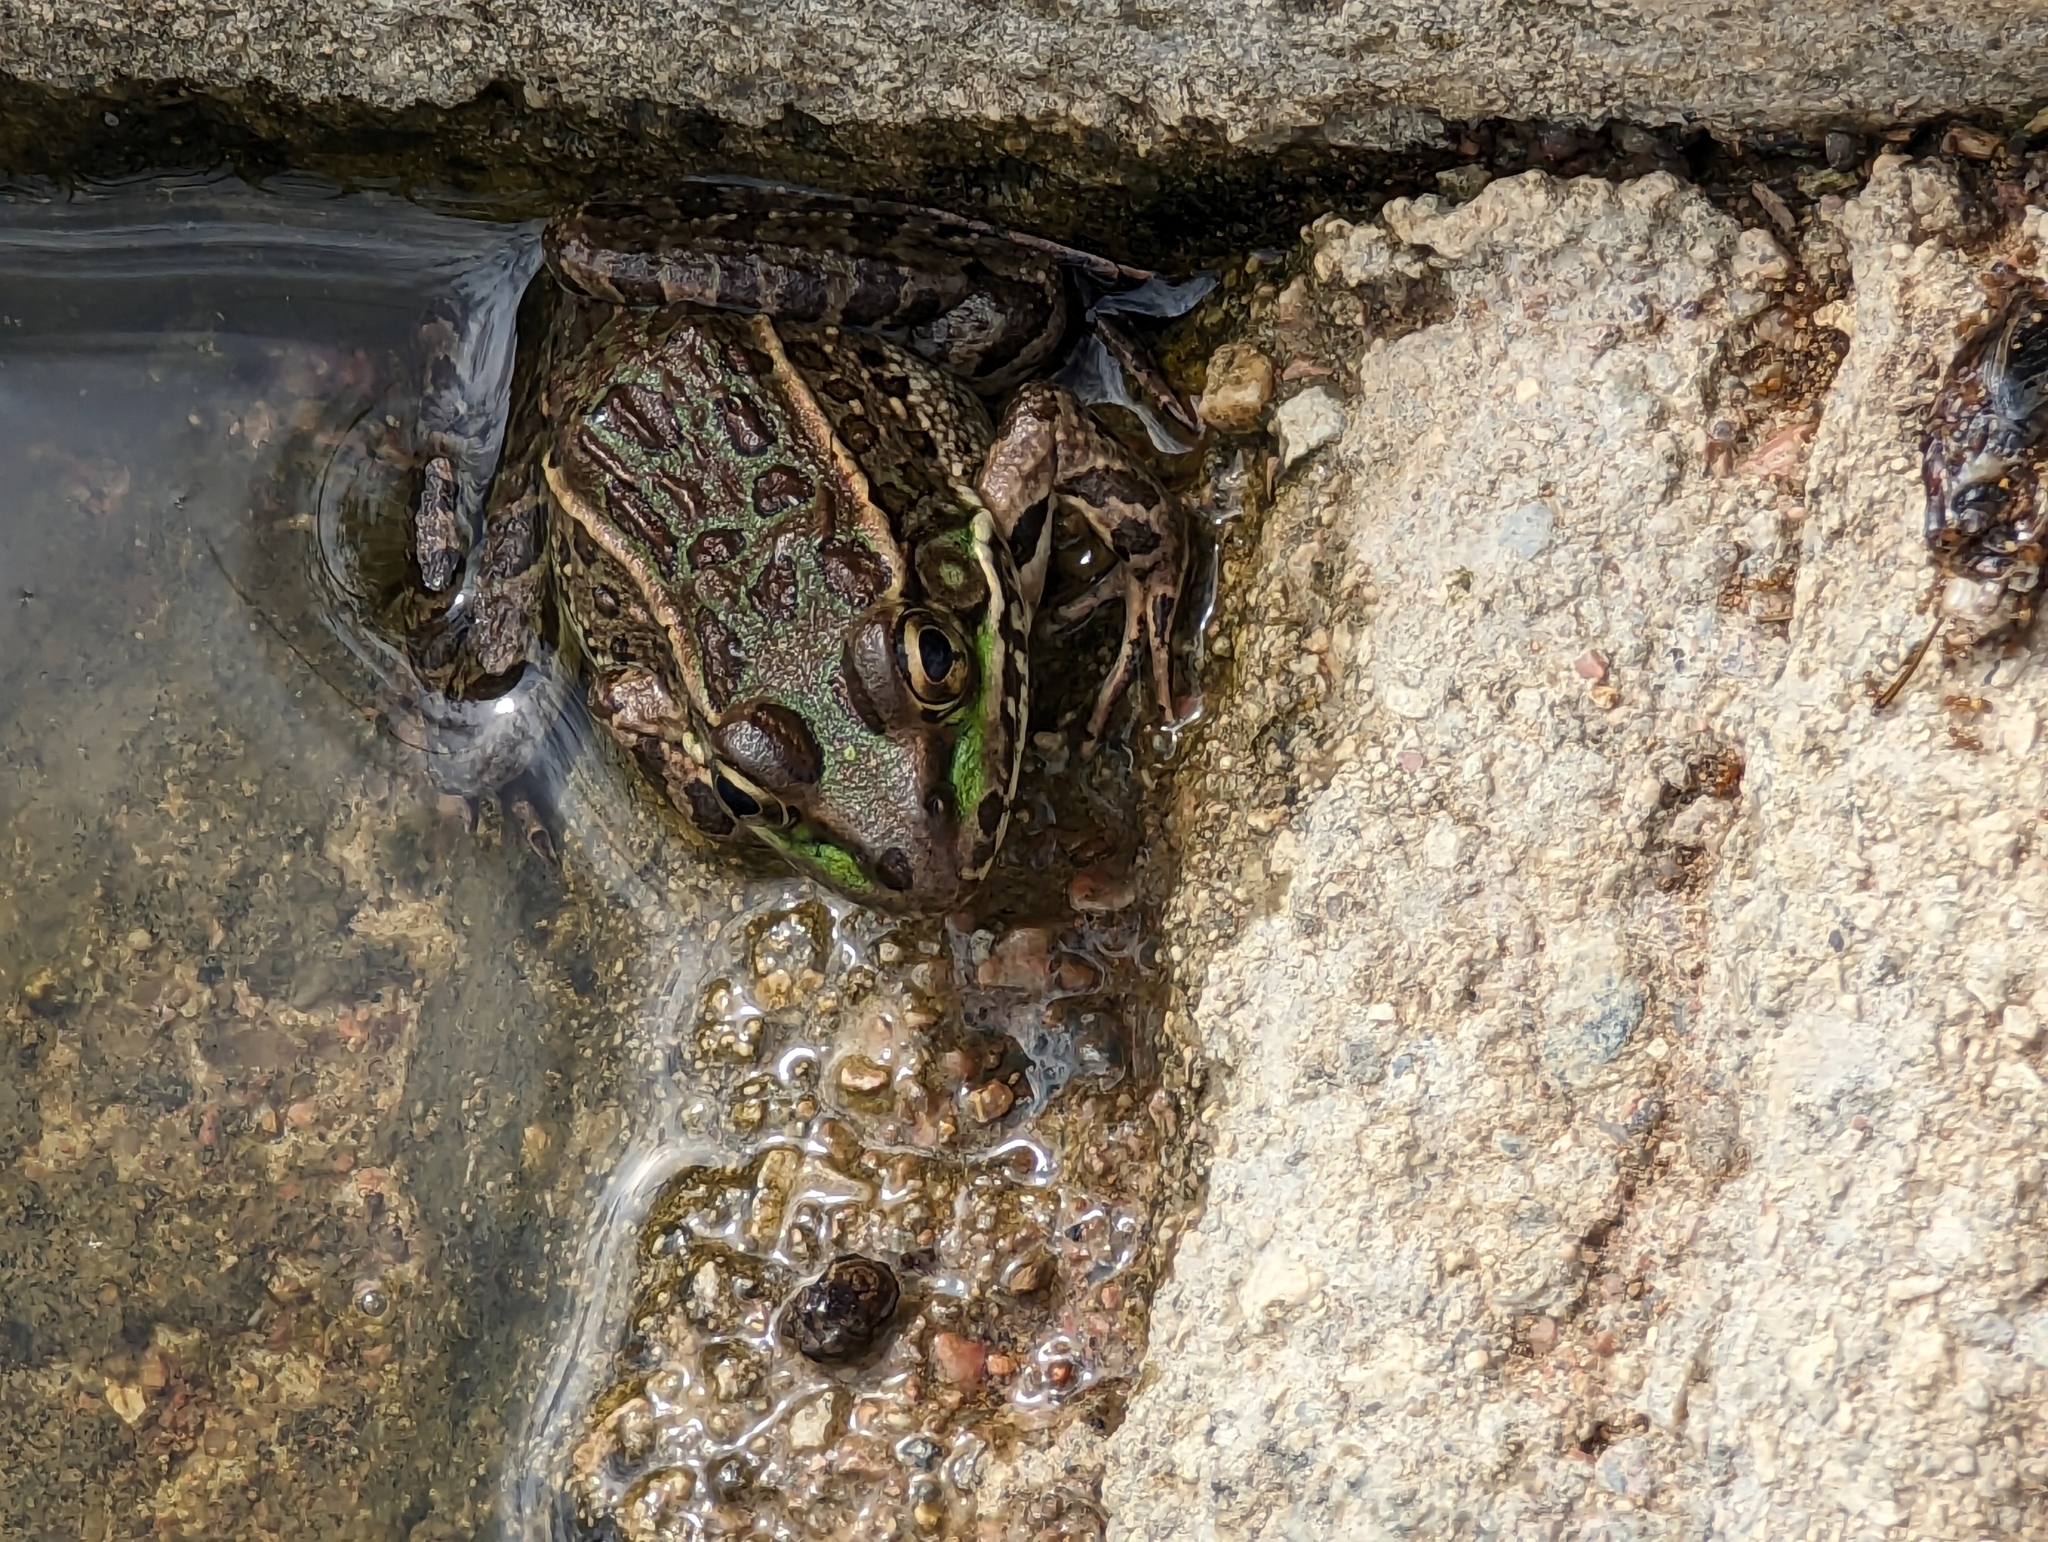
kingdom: Animalia
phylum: Chordata
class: Amphibia
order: Anura
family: Ranidae
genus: Lithobates
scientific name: Lithobates yavapaiensis
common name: Lowland leopard frog
